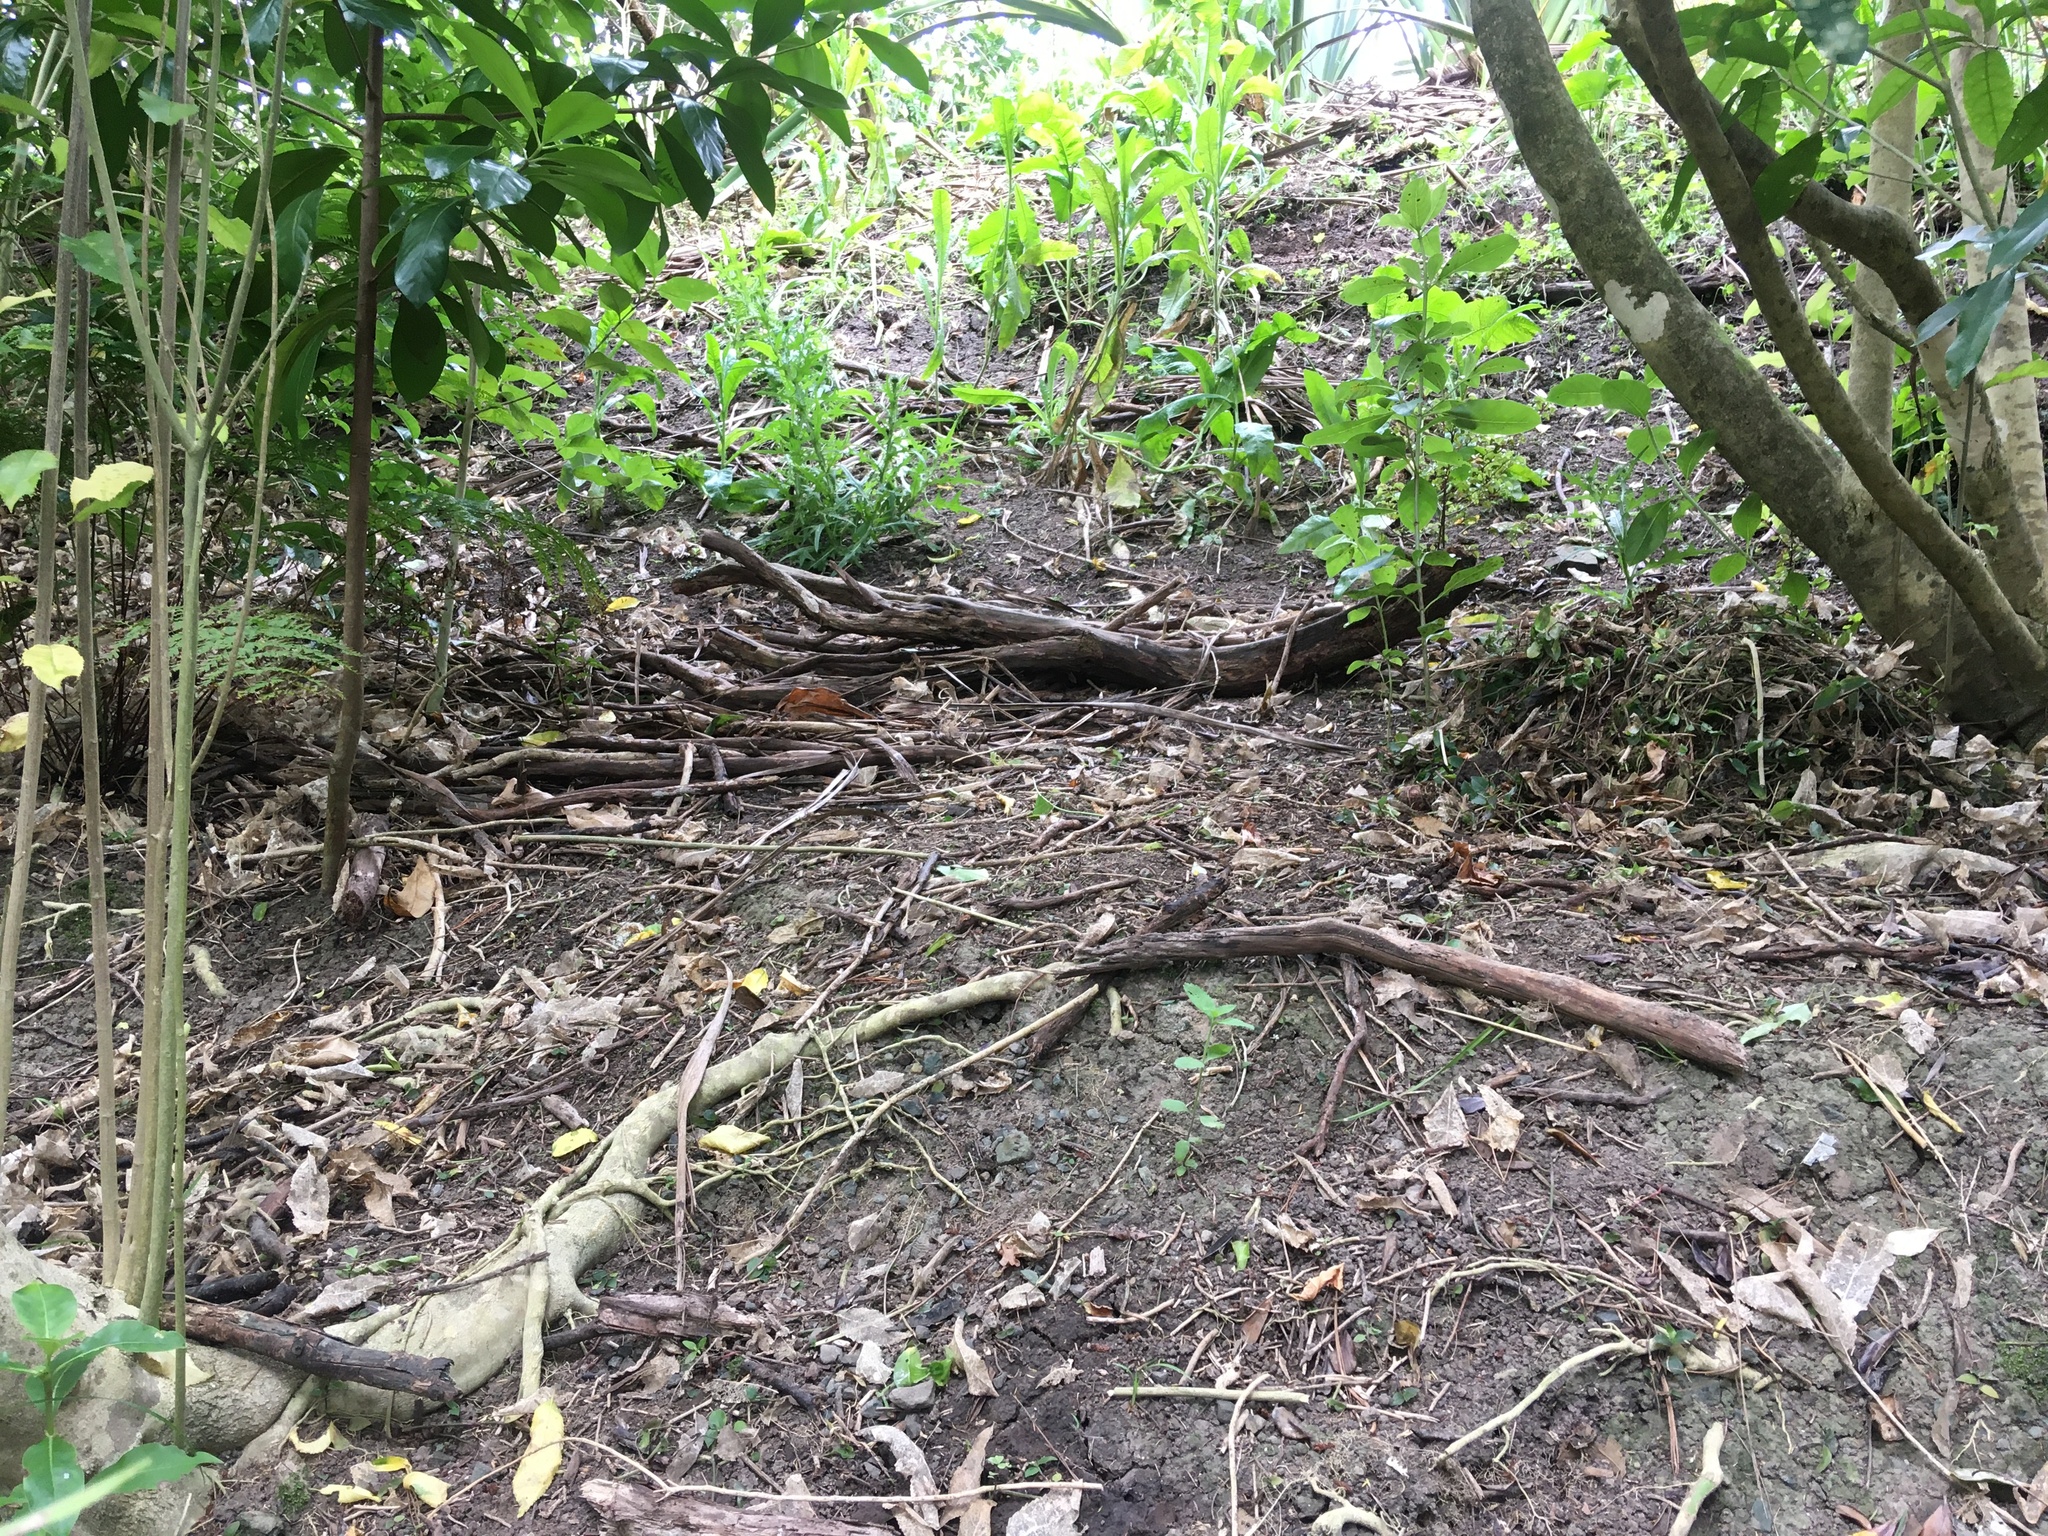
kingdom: Plantae
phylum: Tracheophyta
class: Magnoliopsida
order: Gentianales
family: Rubiaceae
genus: Coprosma
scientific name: Coprosma robusta
